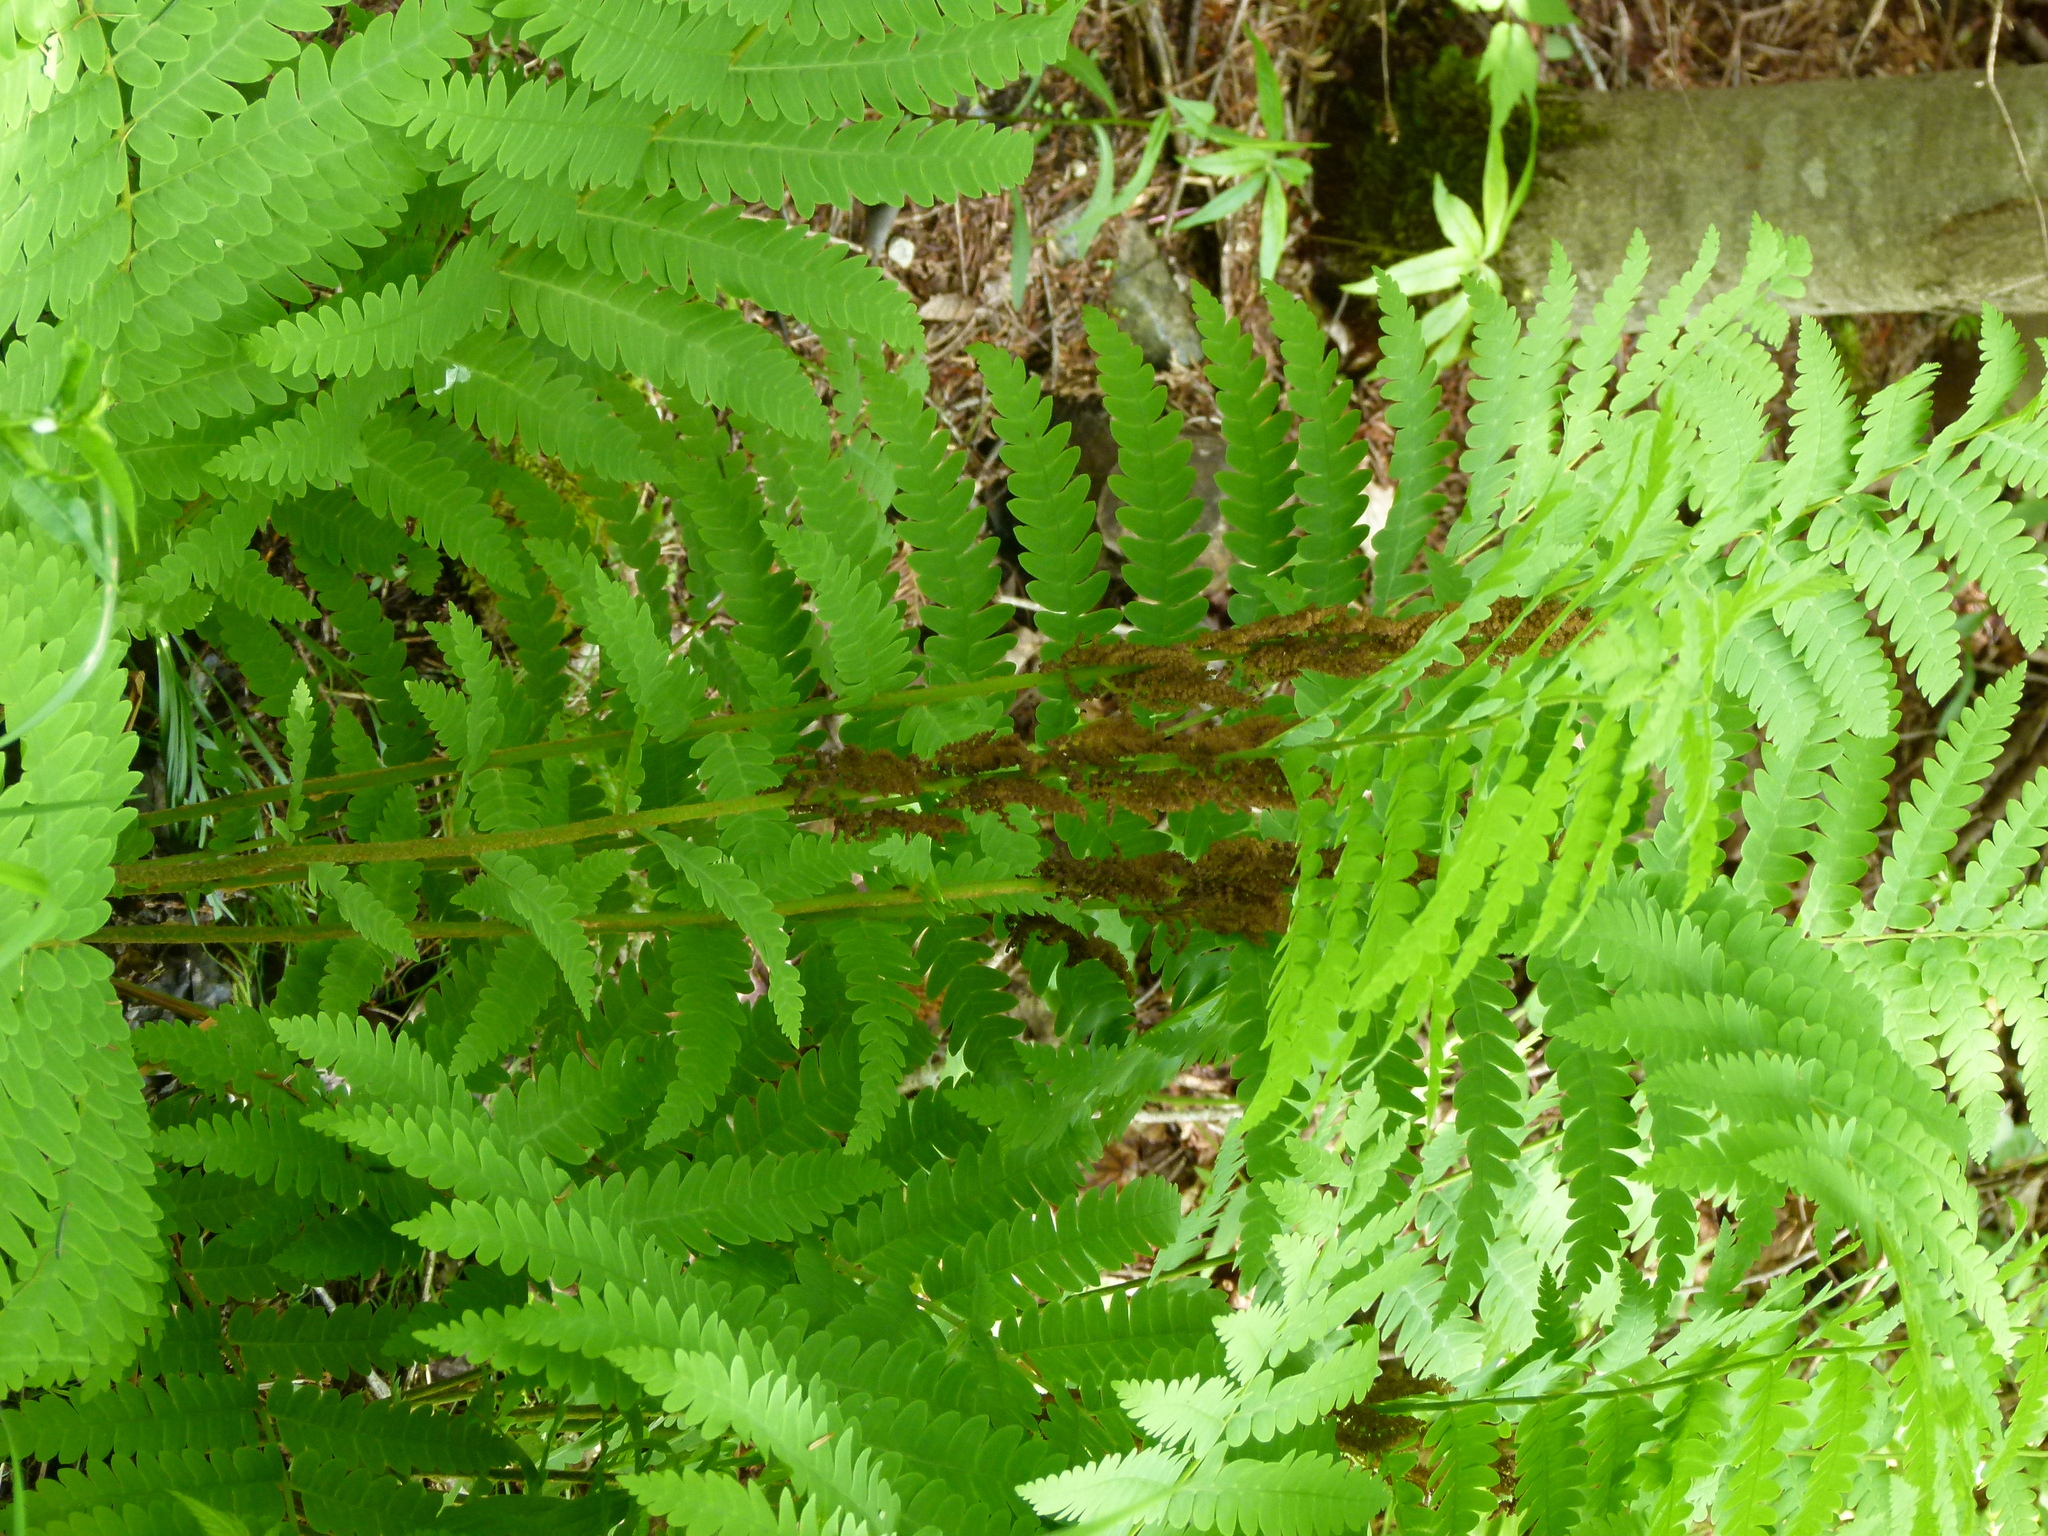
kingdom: Plantae
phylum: Tracheophyta
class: Polypodiopsida
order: Osmundales
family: Osmundaceae
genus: Claytosmunda
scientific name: Claytosmunda claytoniana
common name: Clayton's fern
